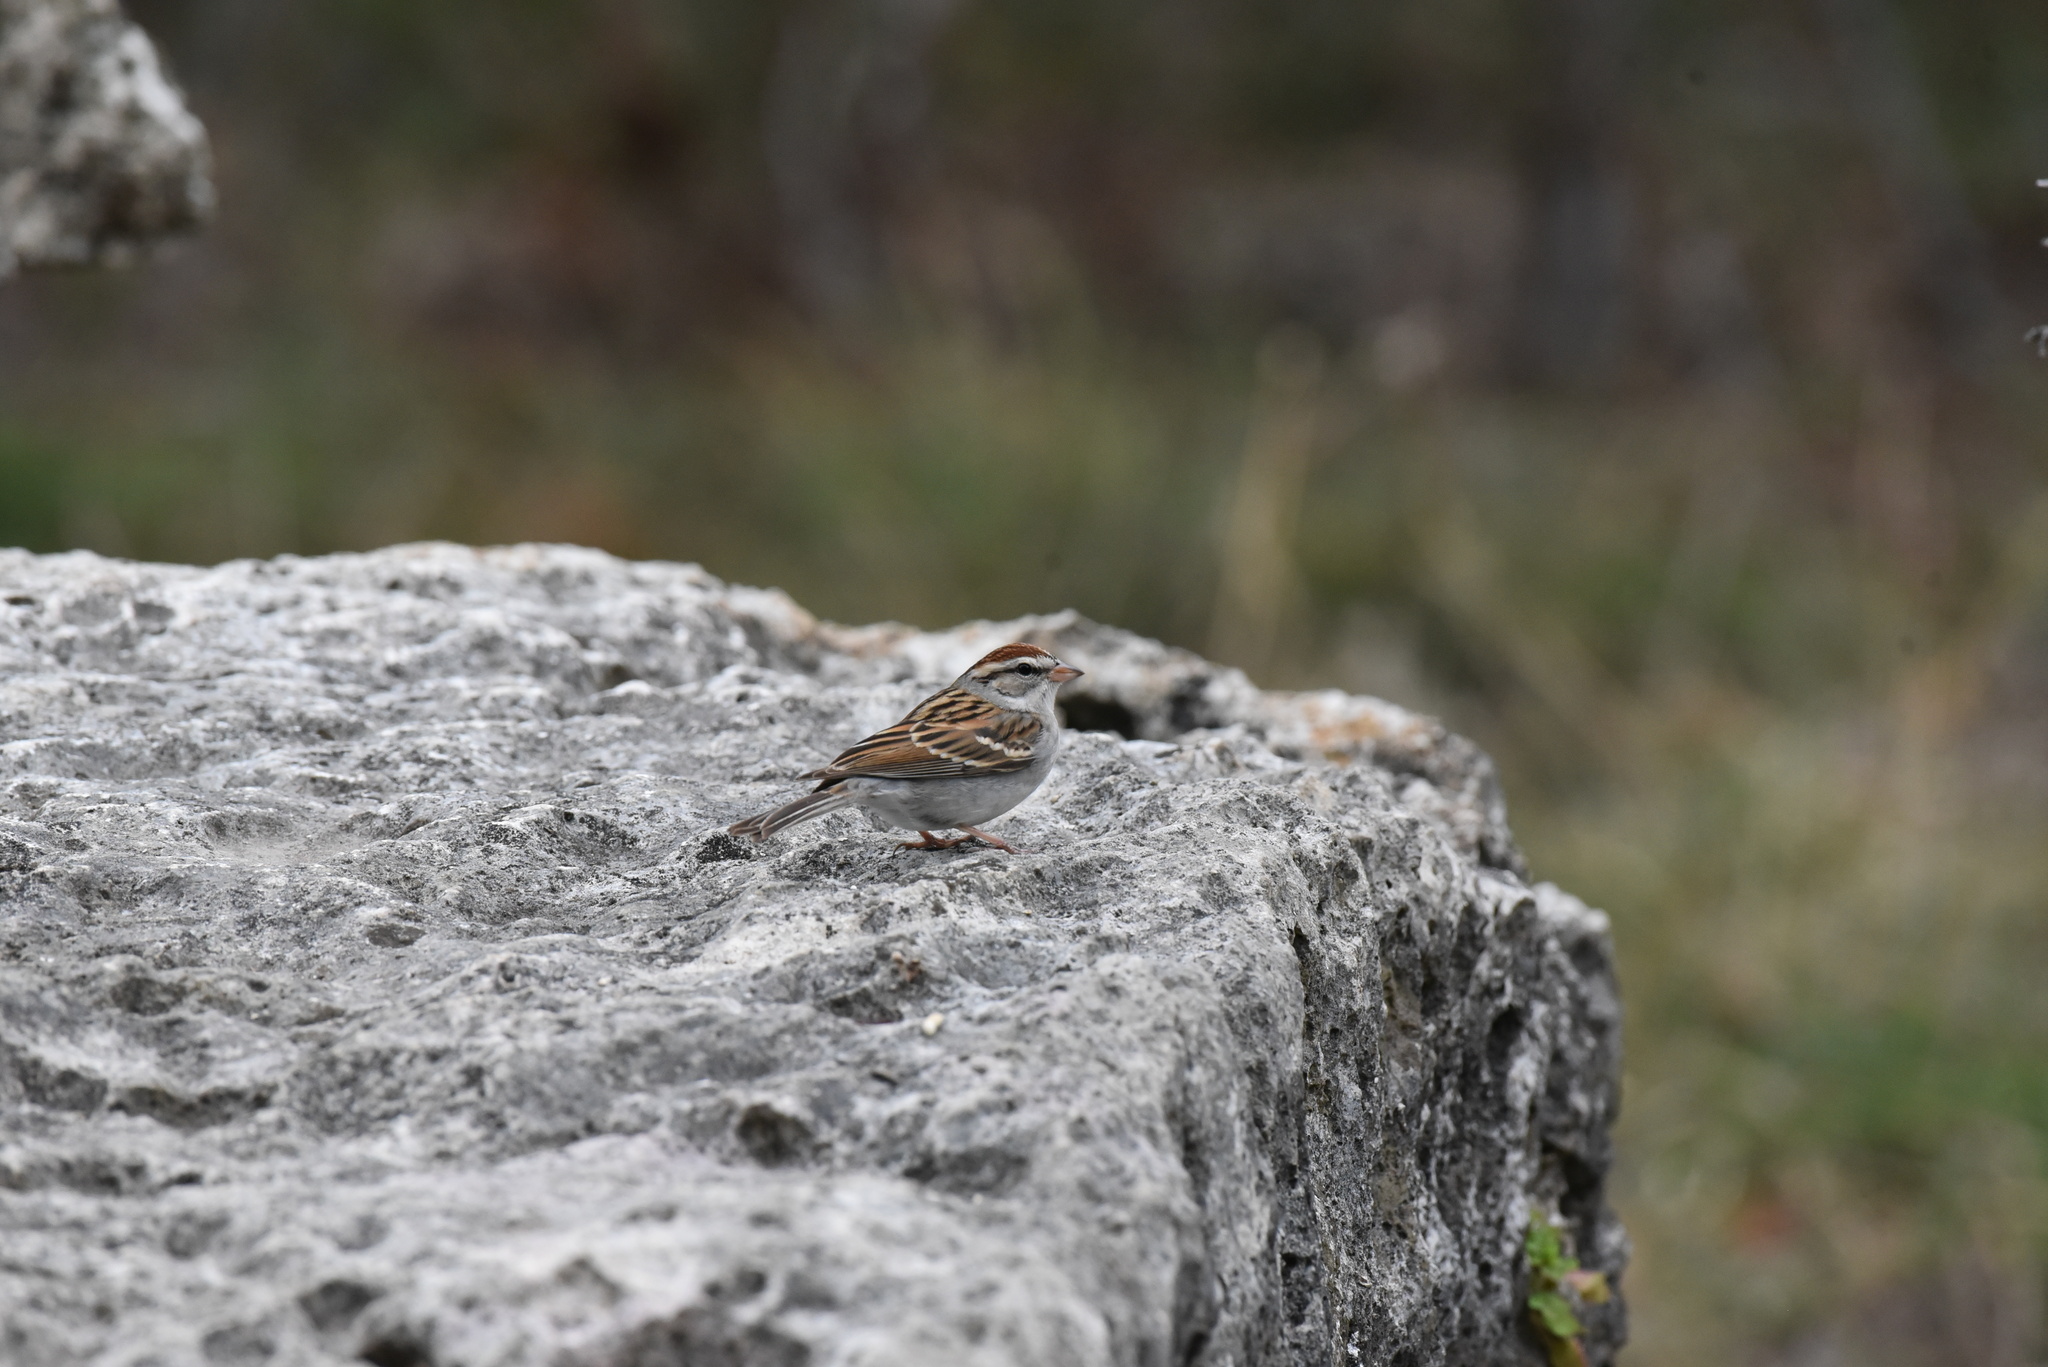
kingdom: Animalia
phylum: Chordata
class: Aves
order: Passeriformes
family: Passerellidae
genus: Spizella
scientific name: Spizella passerina
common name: Chipping sparrow
